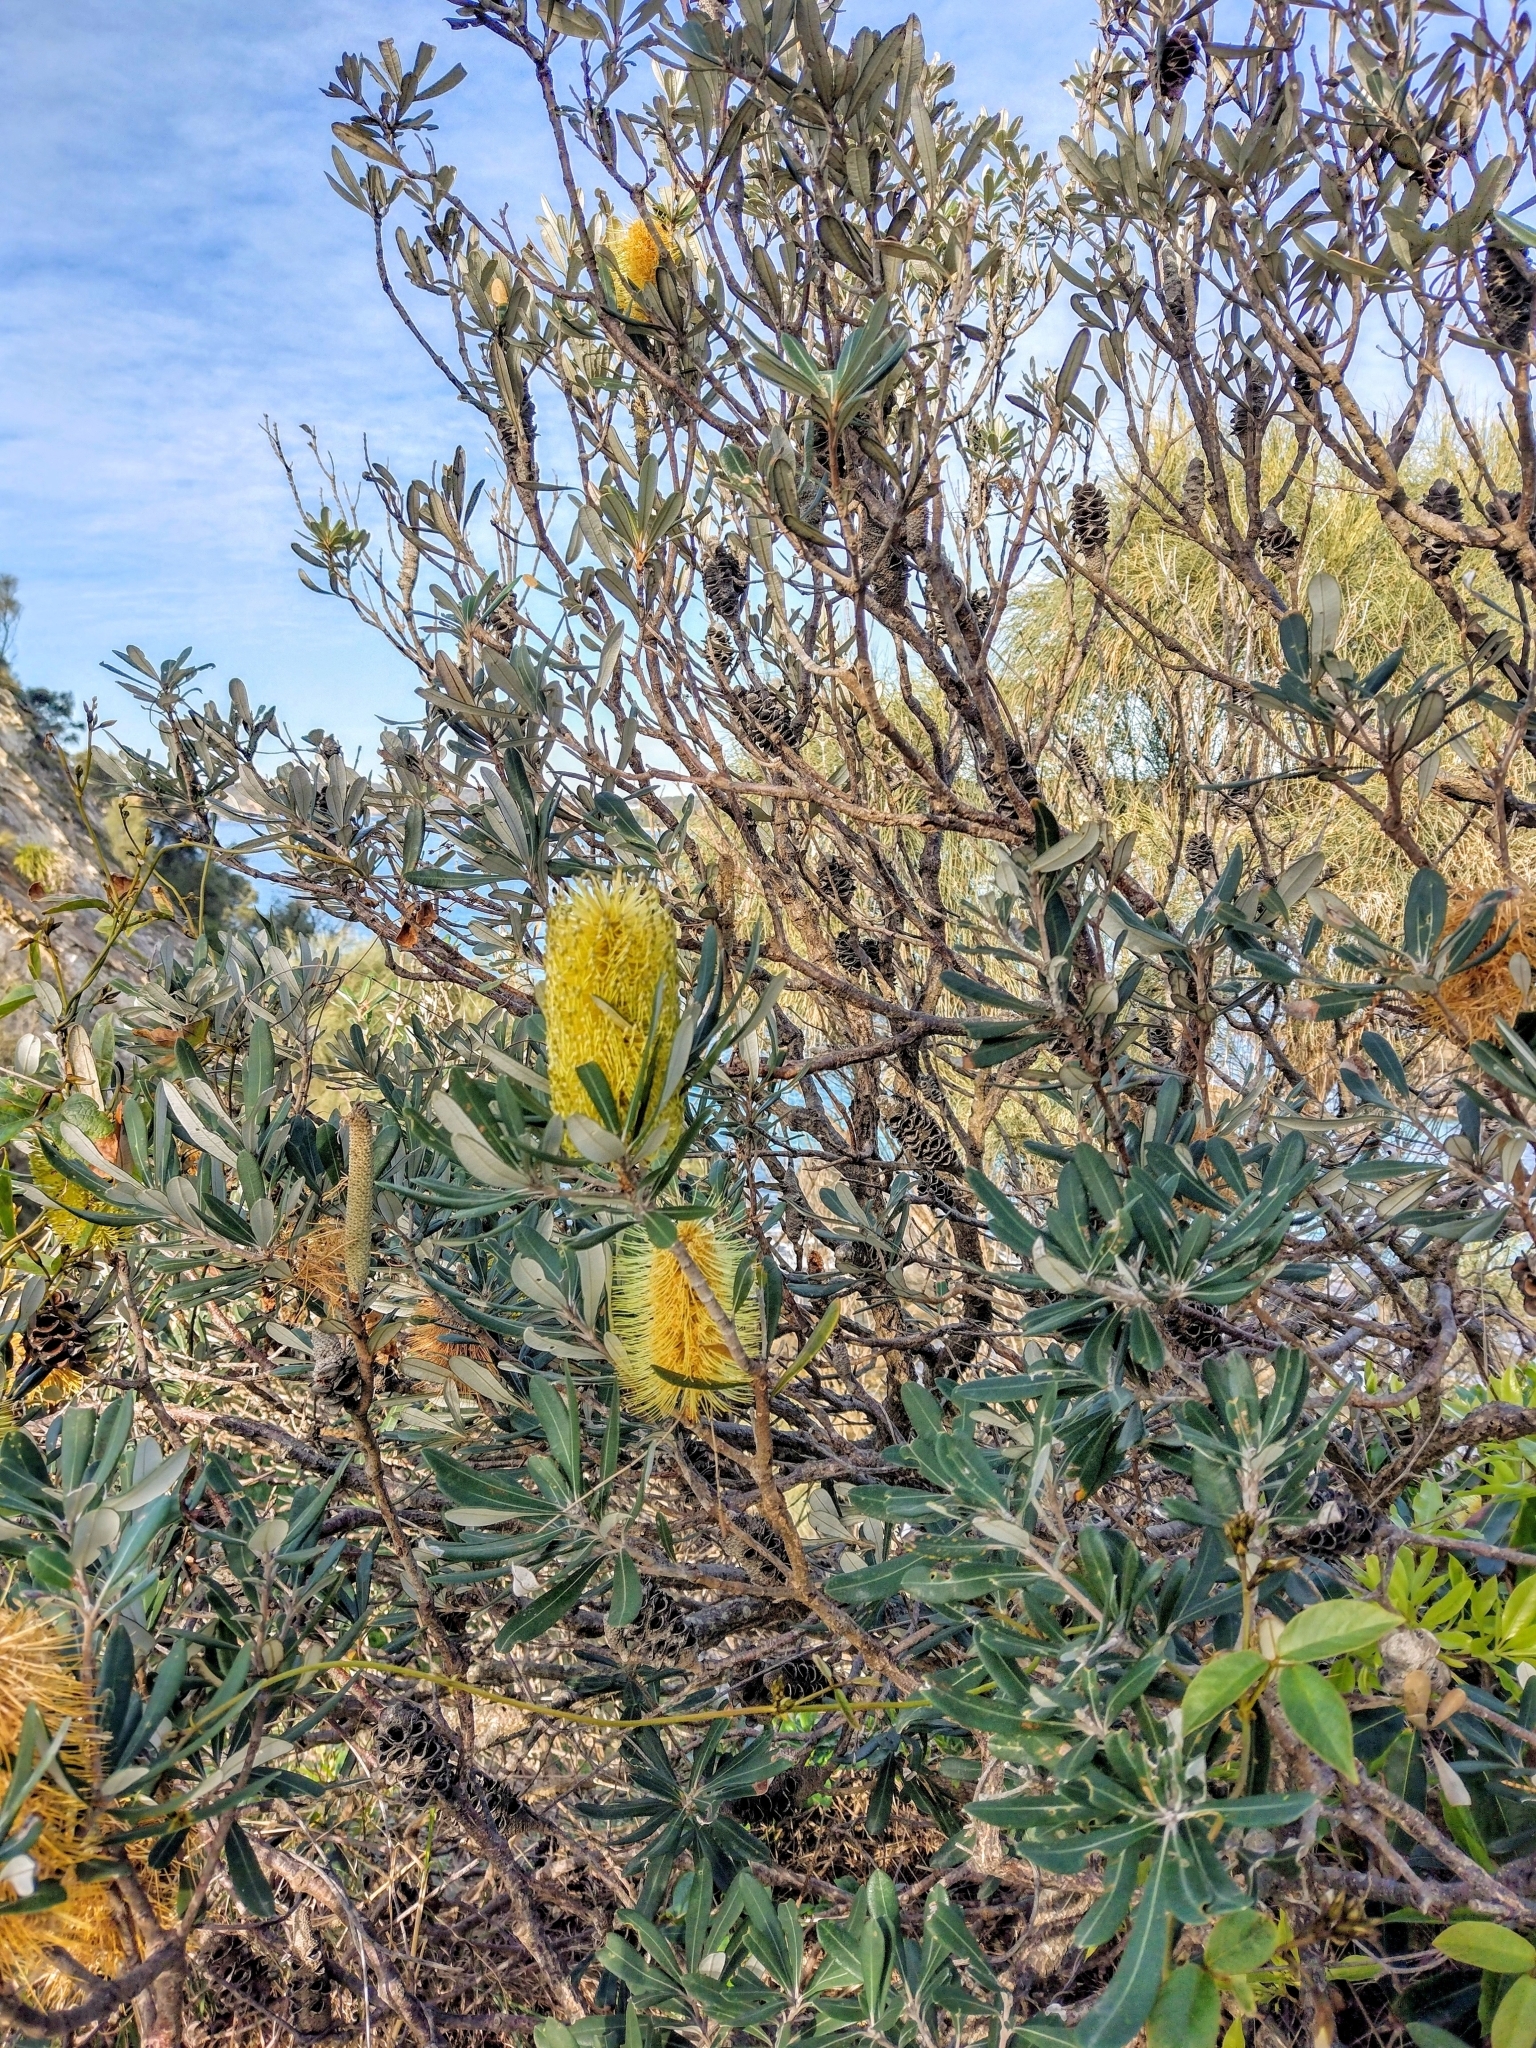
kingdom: Plantae
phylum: Tracheophyta
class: Magnoliopsida
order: Proteales
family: Proteaceae
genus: Banksia
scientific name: Banksia integrifolia
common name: White-honeysuckle
